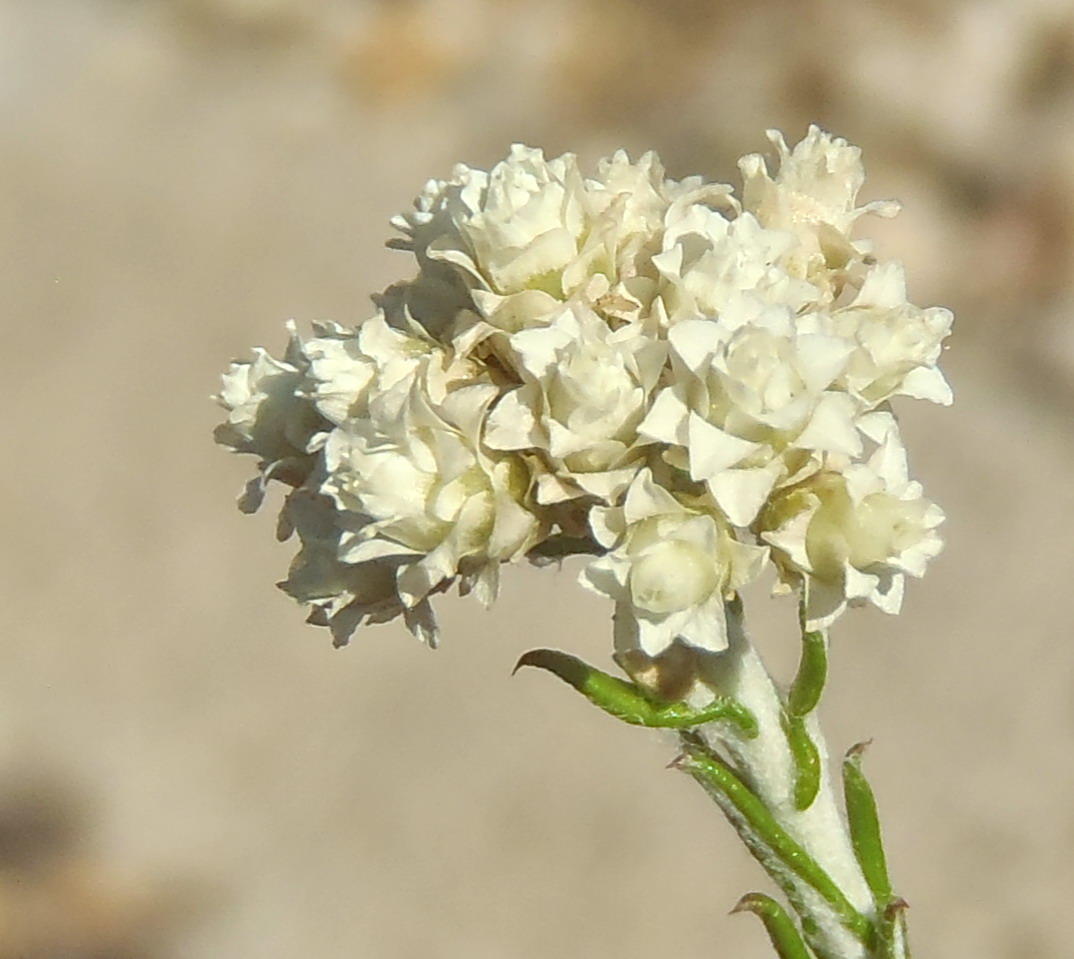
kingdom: Plantae
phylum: Tracheophyta
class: Magnoliopsida
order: Asterales
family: Asteraceae
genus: Helichrysum
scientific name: Helichrysum teretifolium
